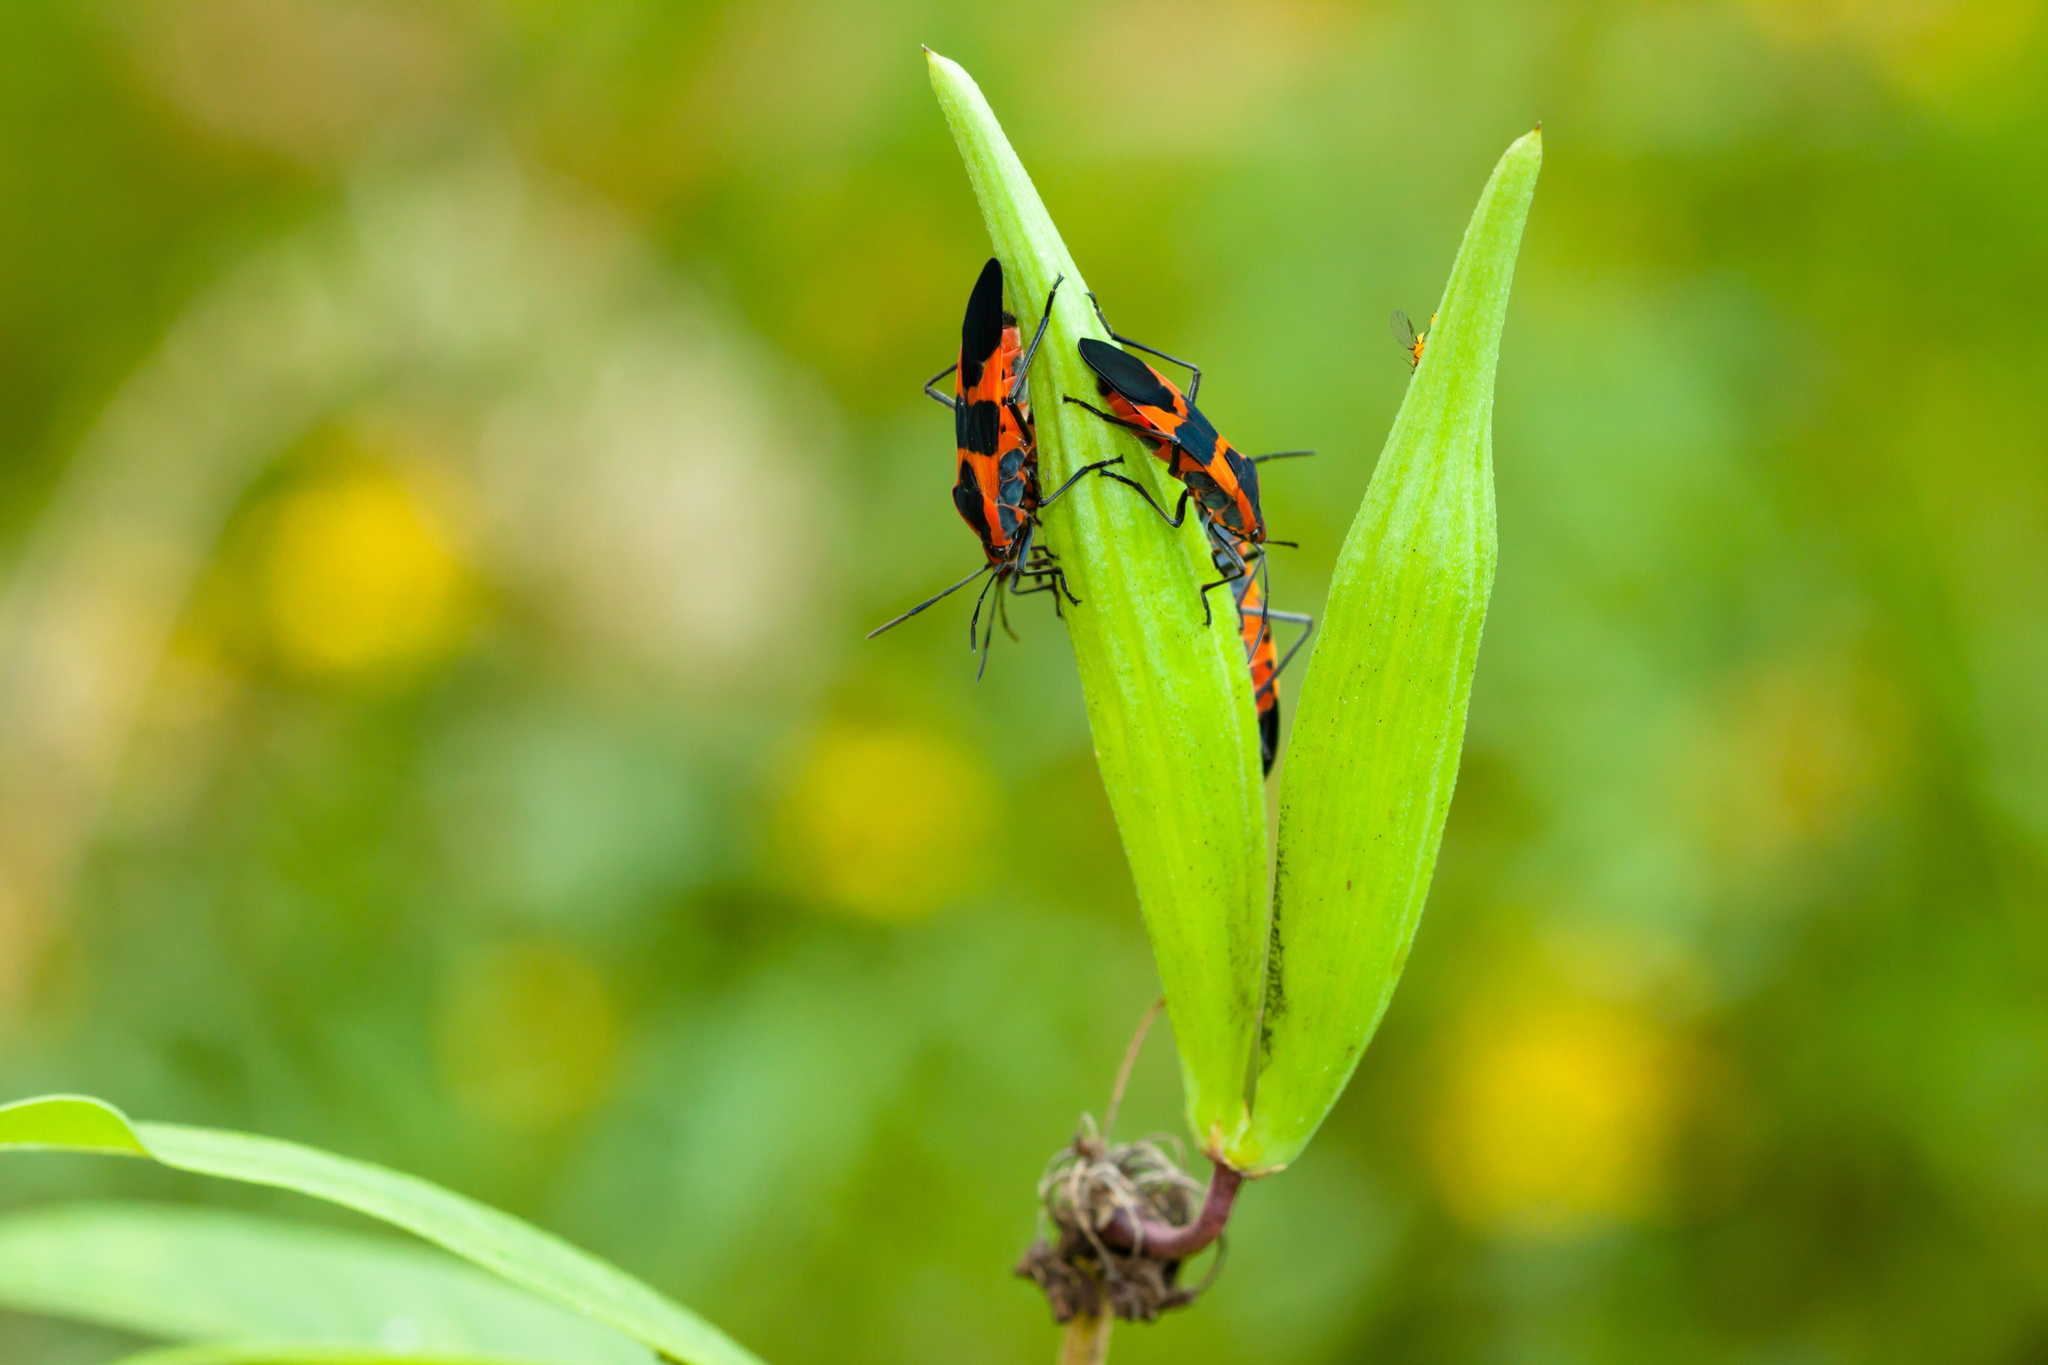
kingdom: Animalia
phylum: Arthropoda
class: Insecta
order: Hemiptera
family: Lygaeidae
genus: Oncopeltus
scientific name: Oncopeltus fasciatus
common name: Large milkweed bug
